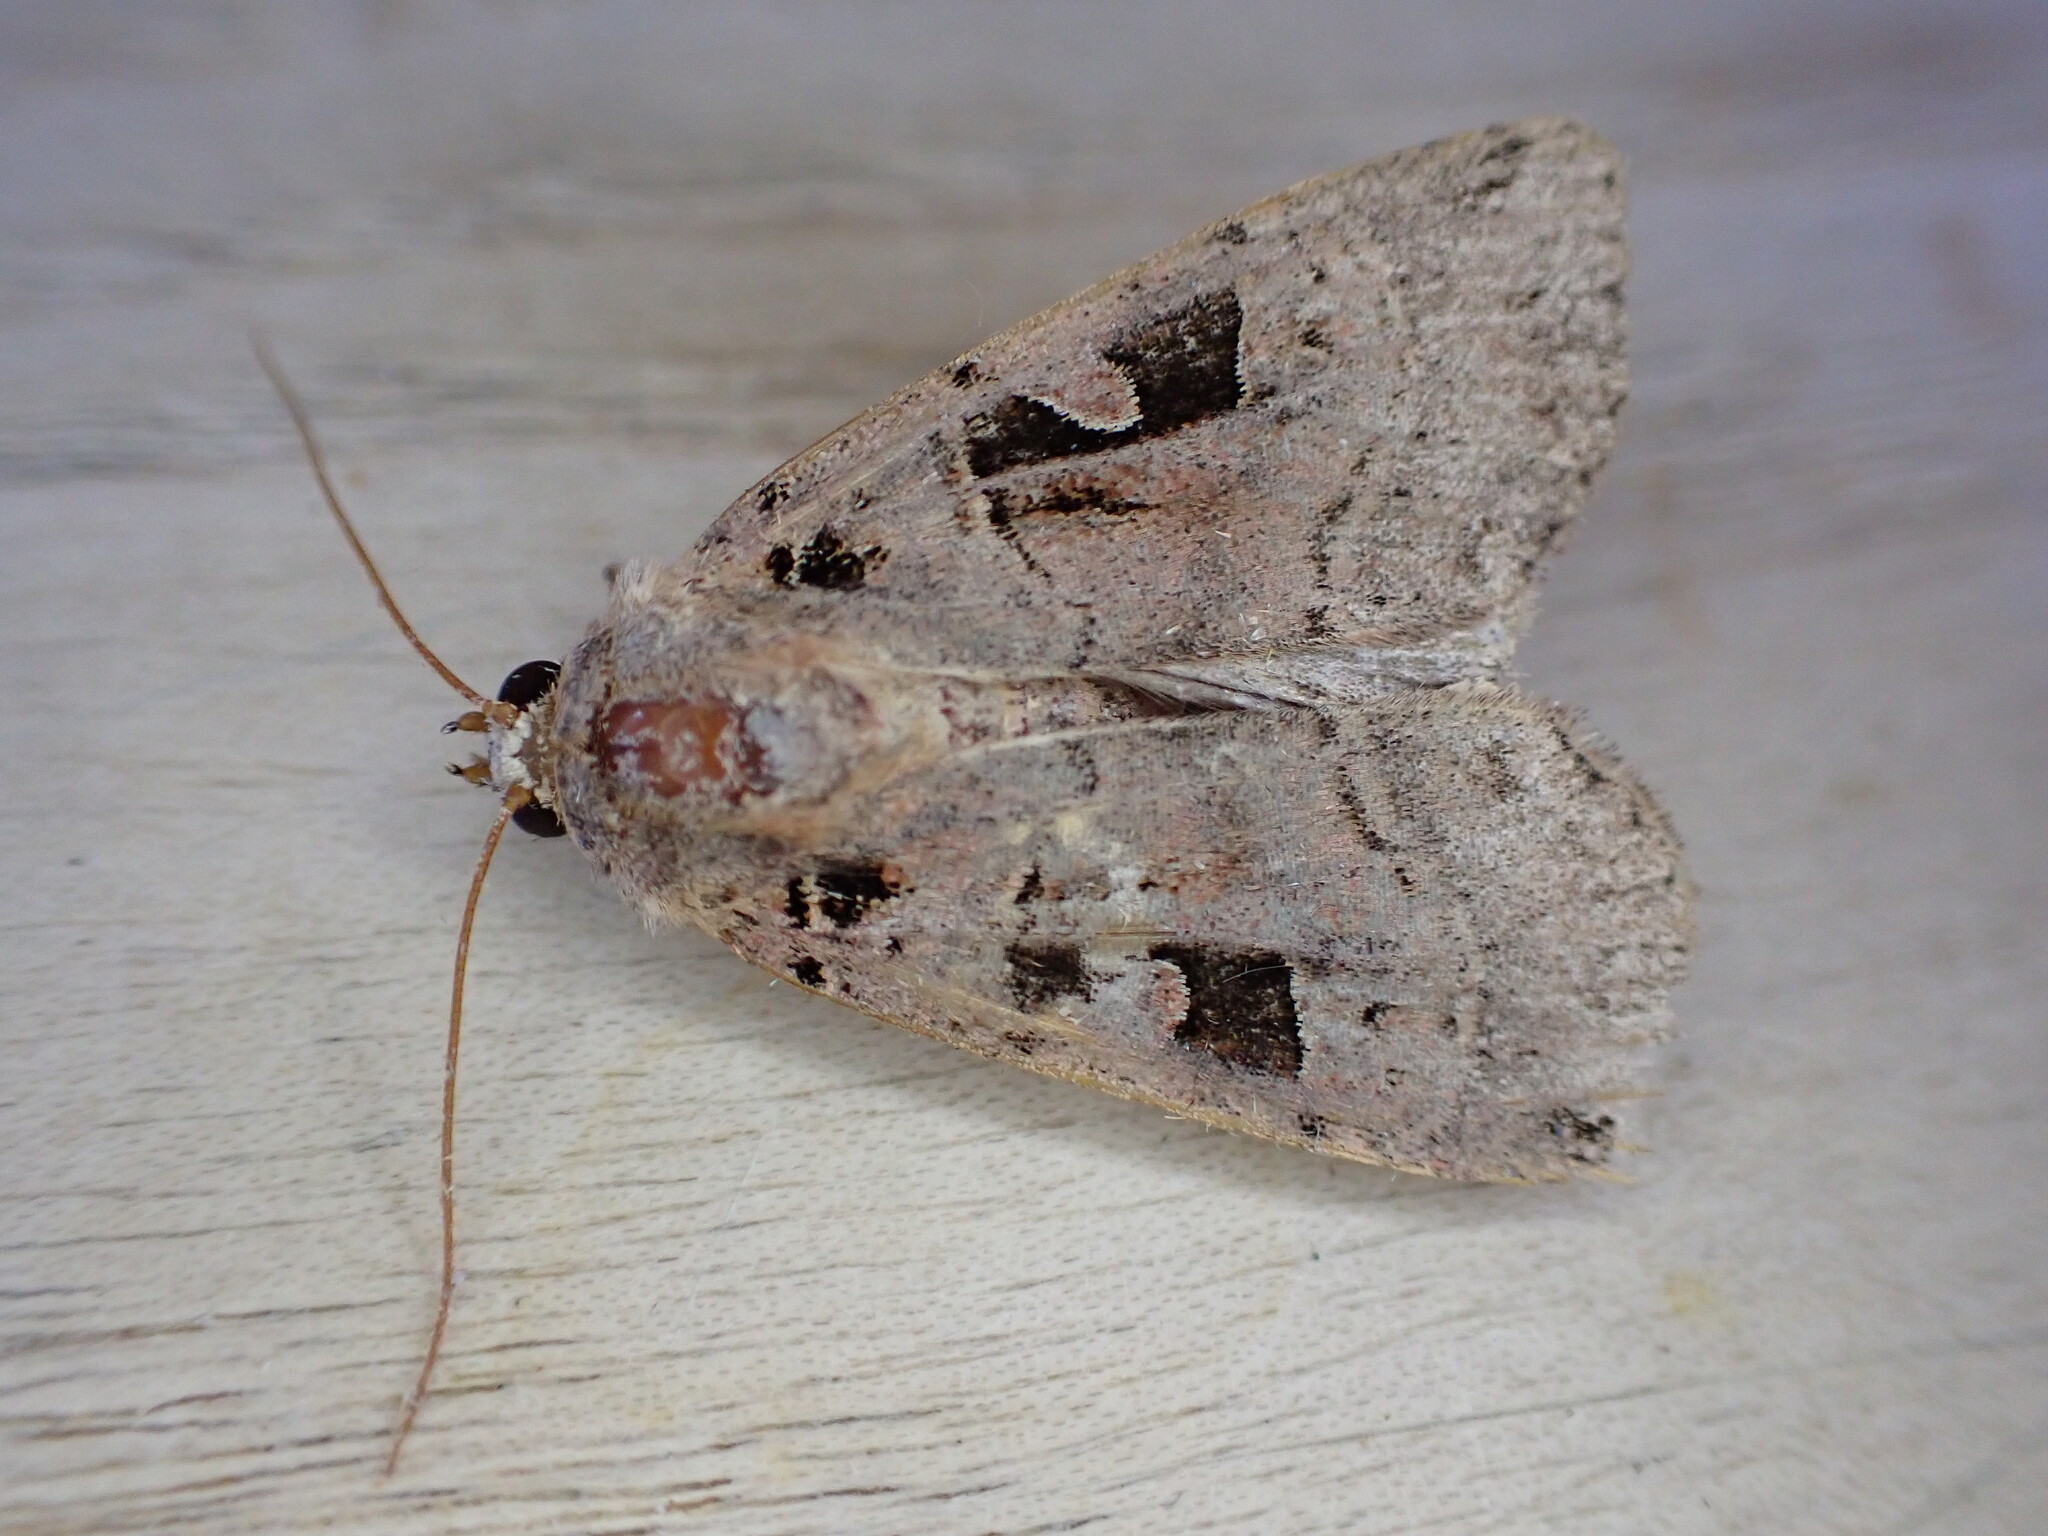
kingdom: Animalia
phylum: Arthropoda
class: Insecta
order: Lepidoptera
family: Noctuidae
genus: Xestia
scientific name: Xestia triangulum
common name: Double square-spot
